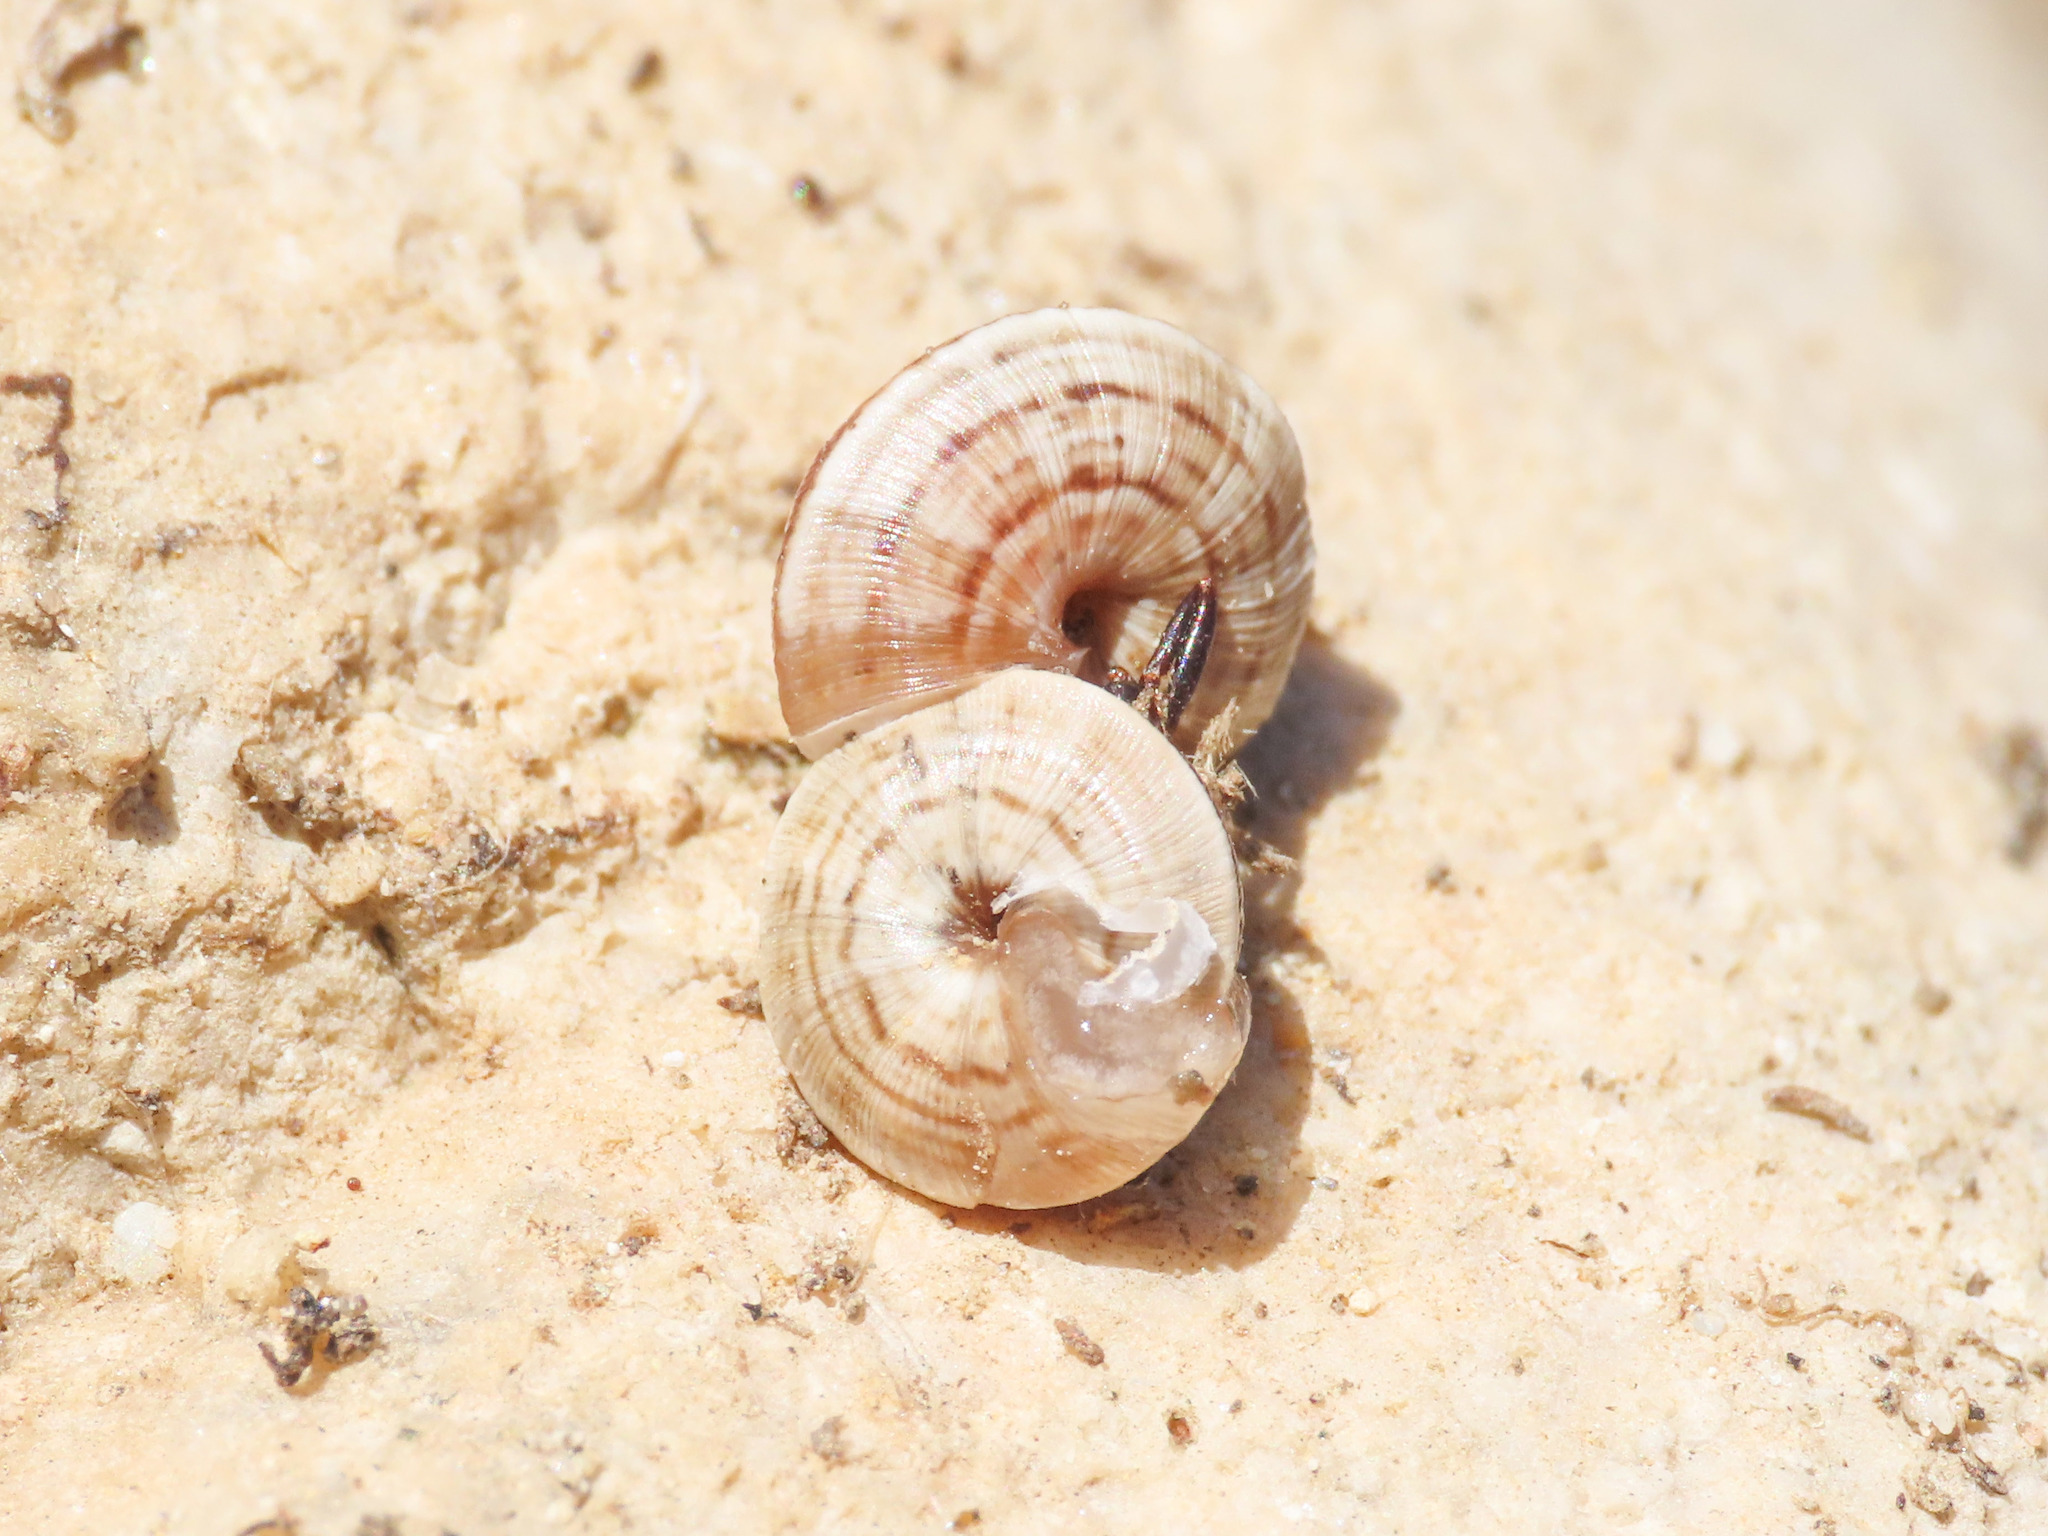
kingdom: Animalia
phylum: Mollusca
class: Gastropoda
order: Stylommatophora
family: Geomitridae
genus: Trochoidea
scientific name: Trochoidea trochoides
